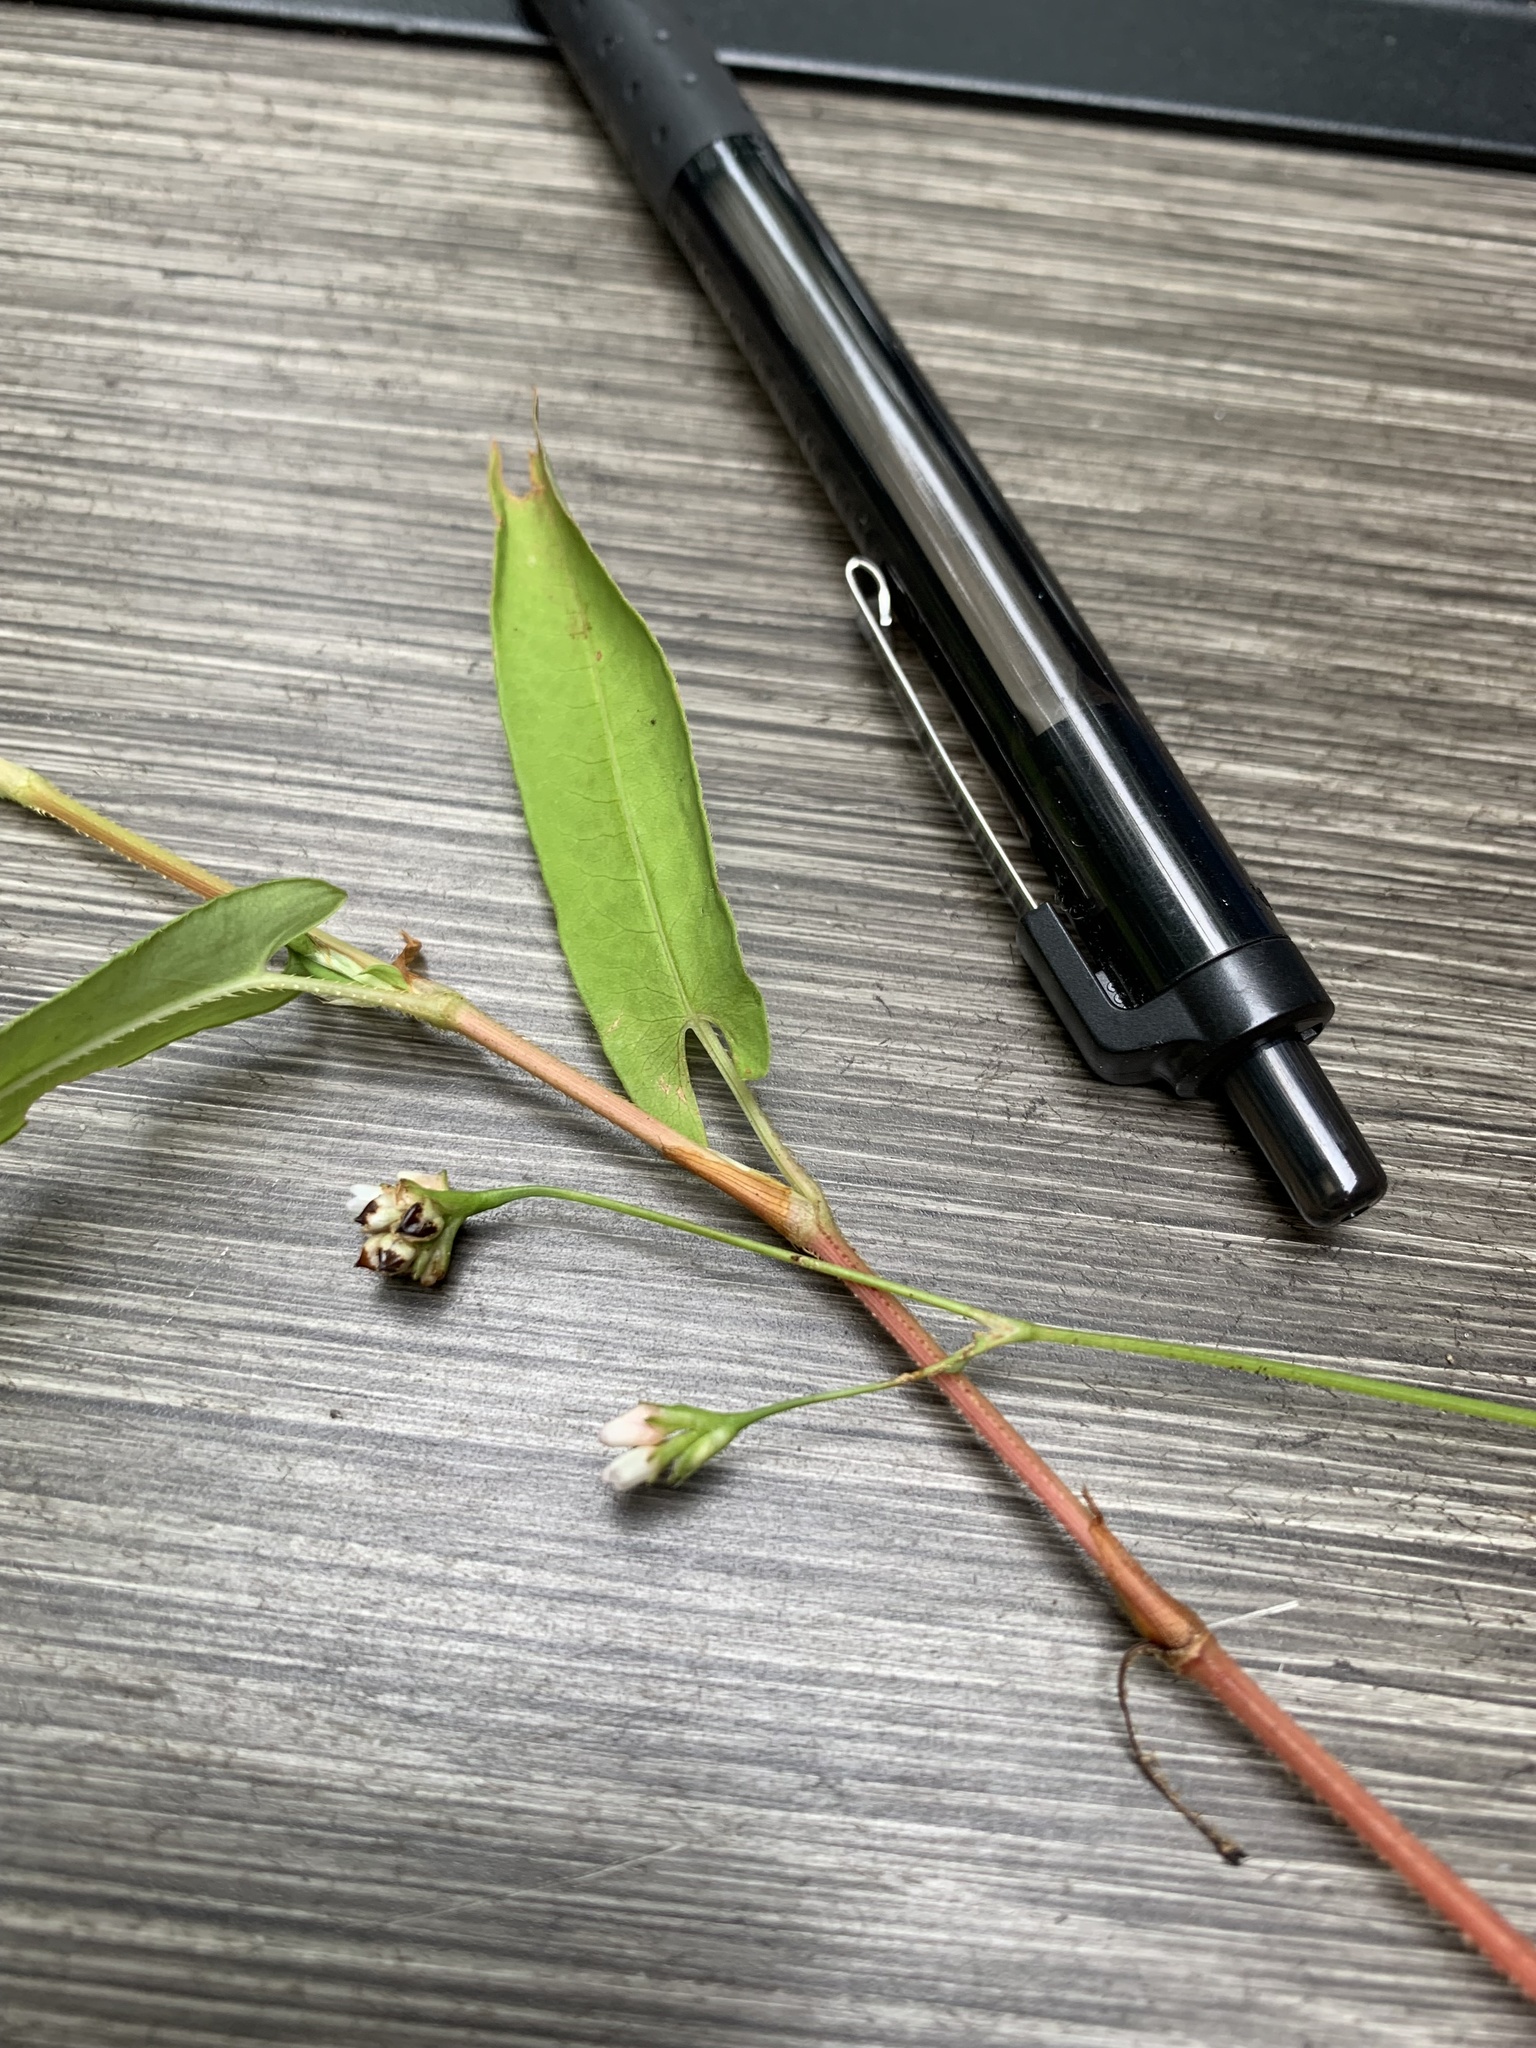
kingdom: Plantae
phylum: Tracheophyta
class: Magnoliopsida
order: Caryophyllales
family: Polygonaceae
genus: Persicaria
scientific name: Persicaria sagittata
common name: American tearthumb
